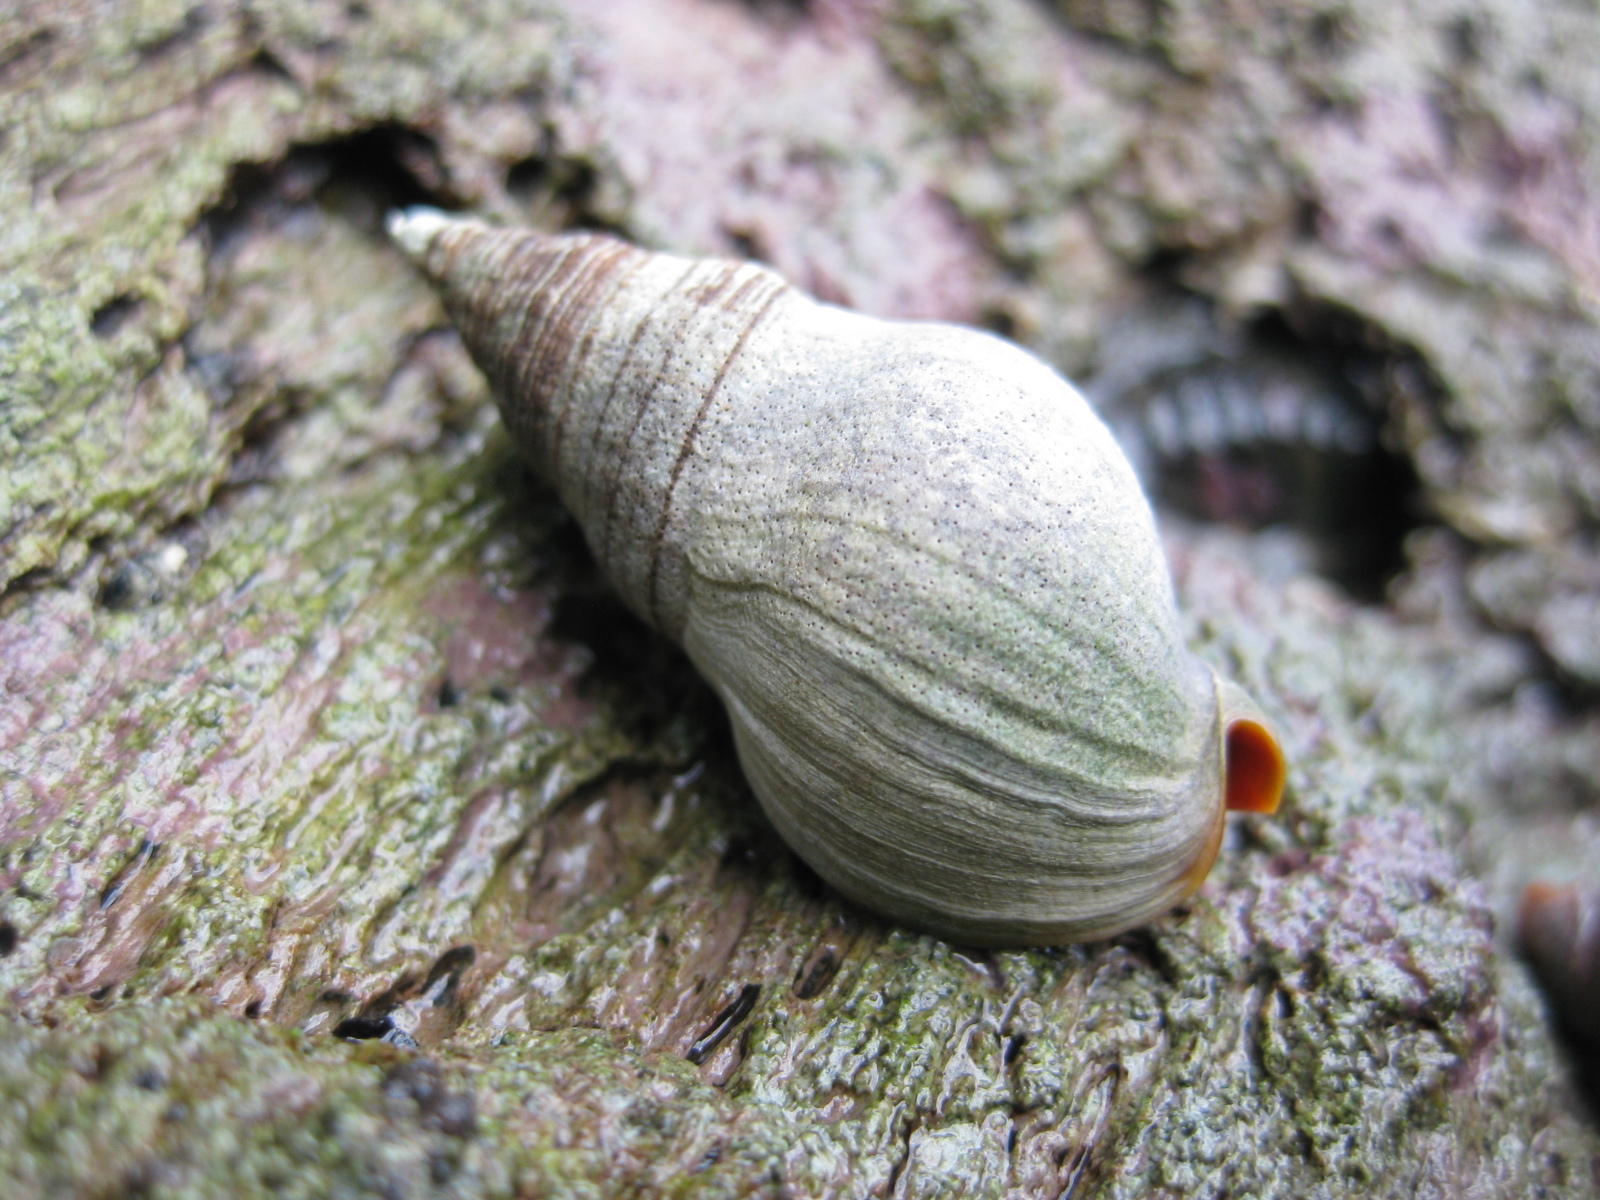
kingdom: Animalia
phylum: Mollusca
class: Gastropoda
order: Neogastropoda
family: Cominellidae
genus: Cominella
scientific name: Cominella virgata
